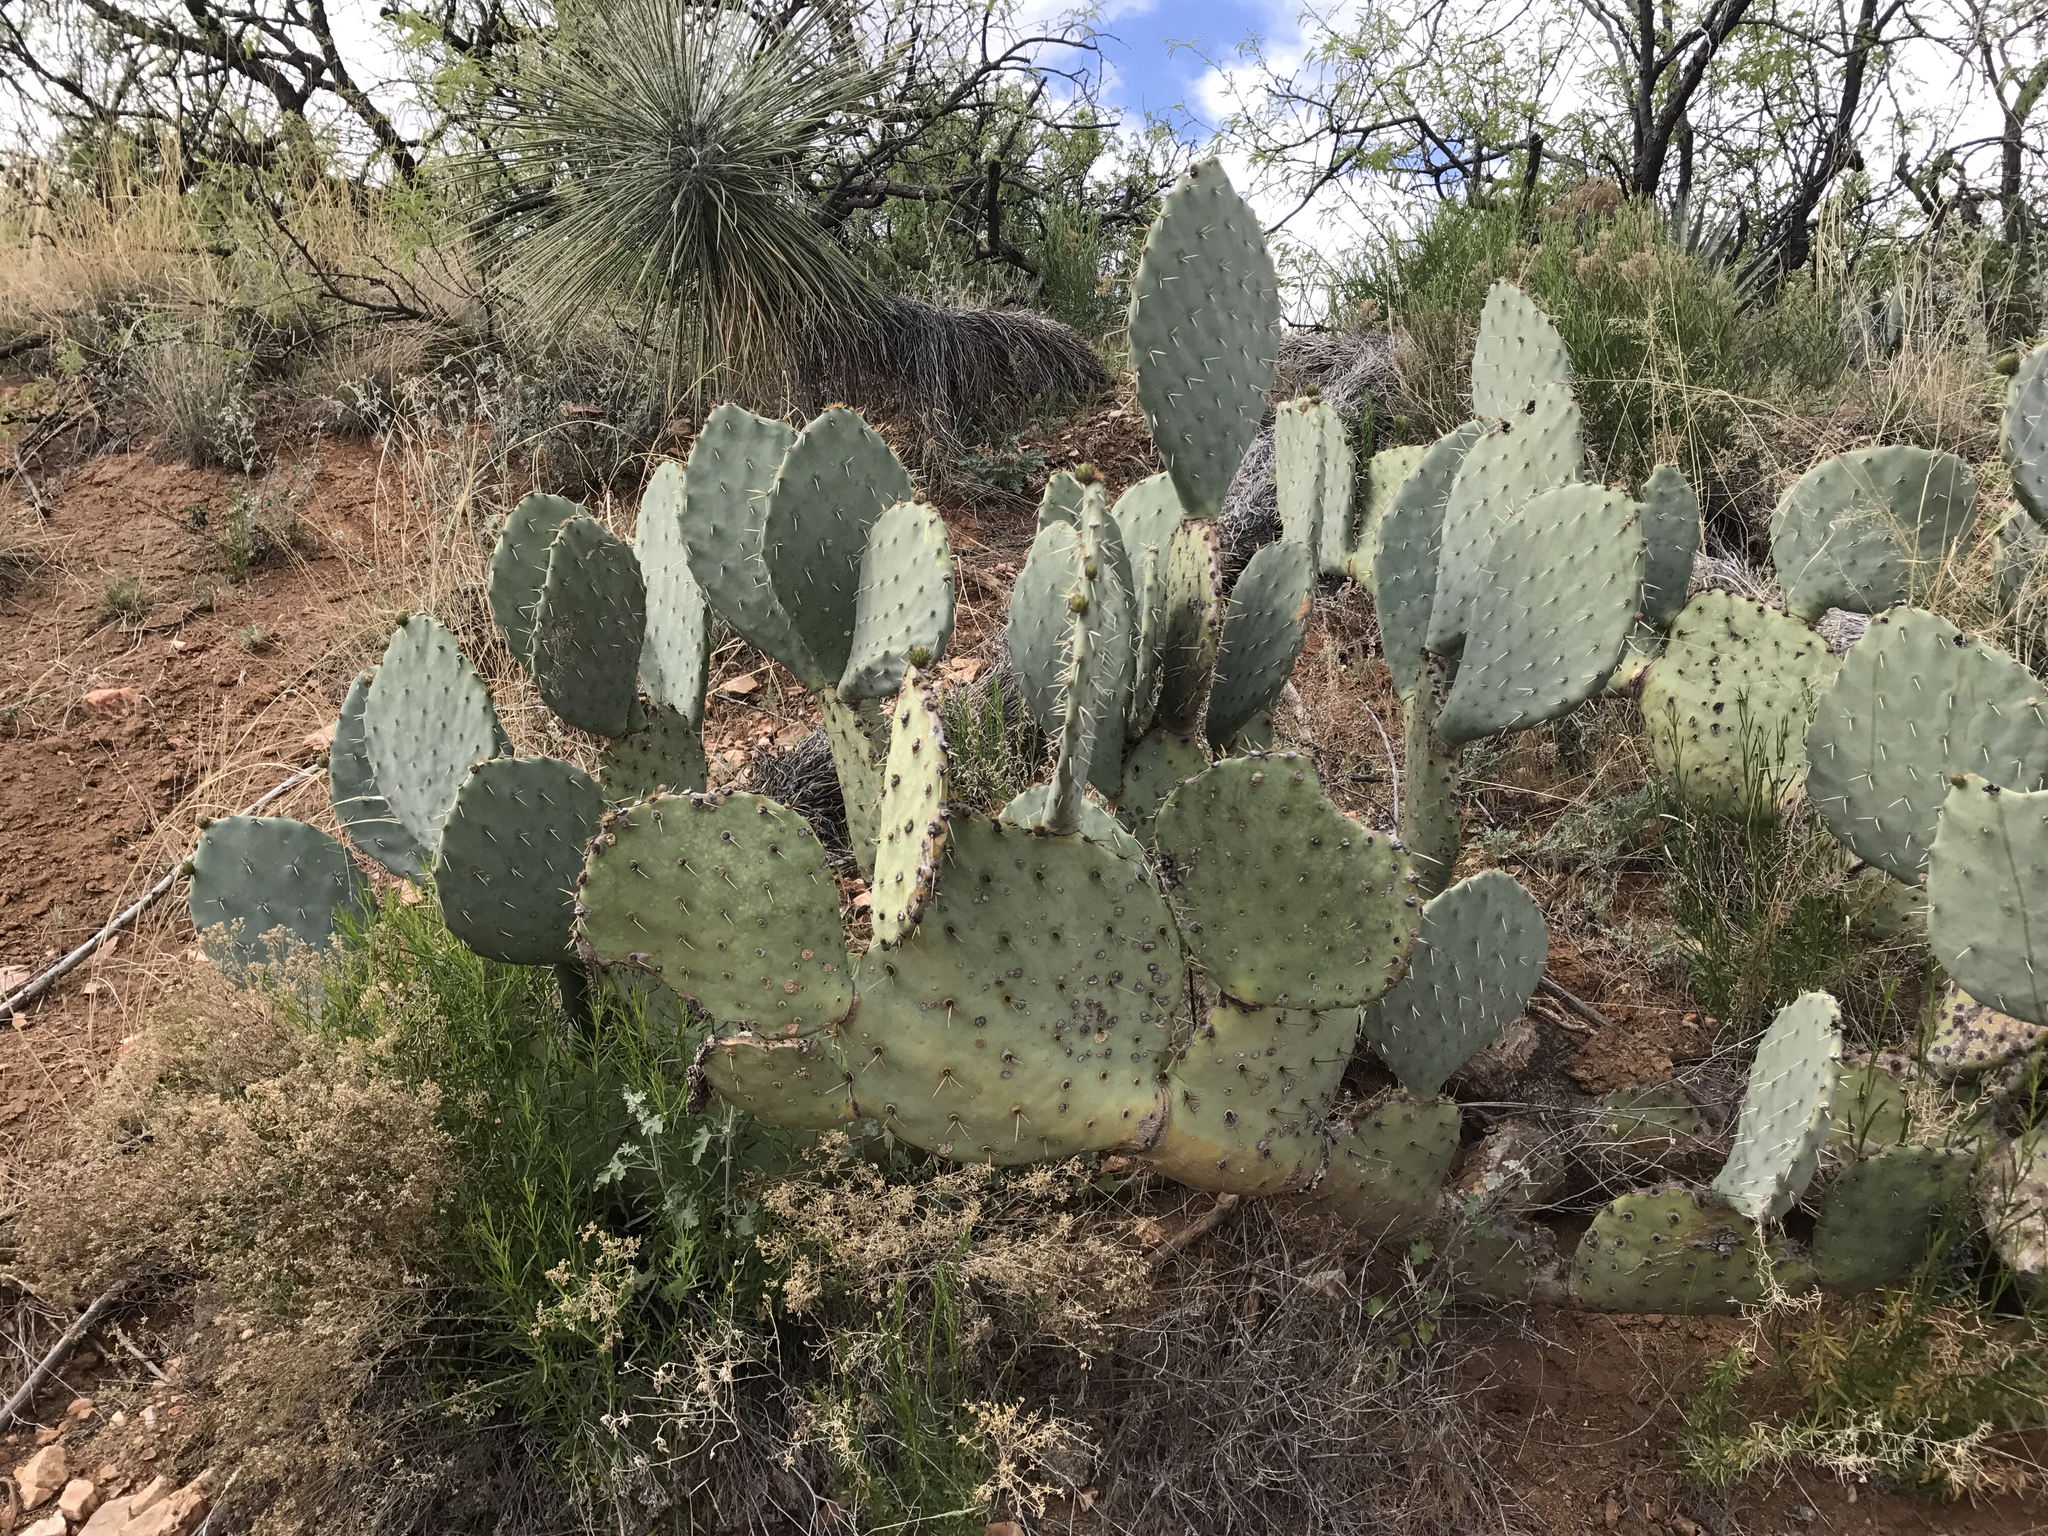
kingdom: Plantae
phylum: Tracheophyta
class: Magnoliopsida
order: Caryophyllales
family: Cactaceae
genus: Opuntia
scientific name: Opuntia engelmannii
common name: Cactus-apple
